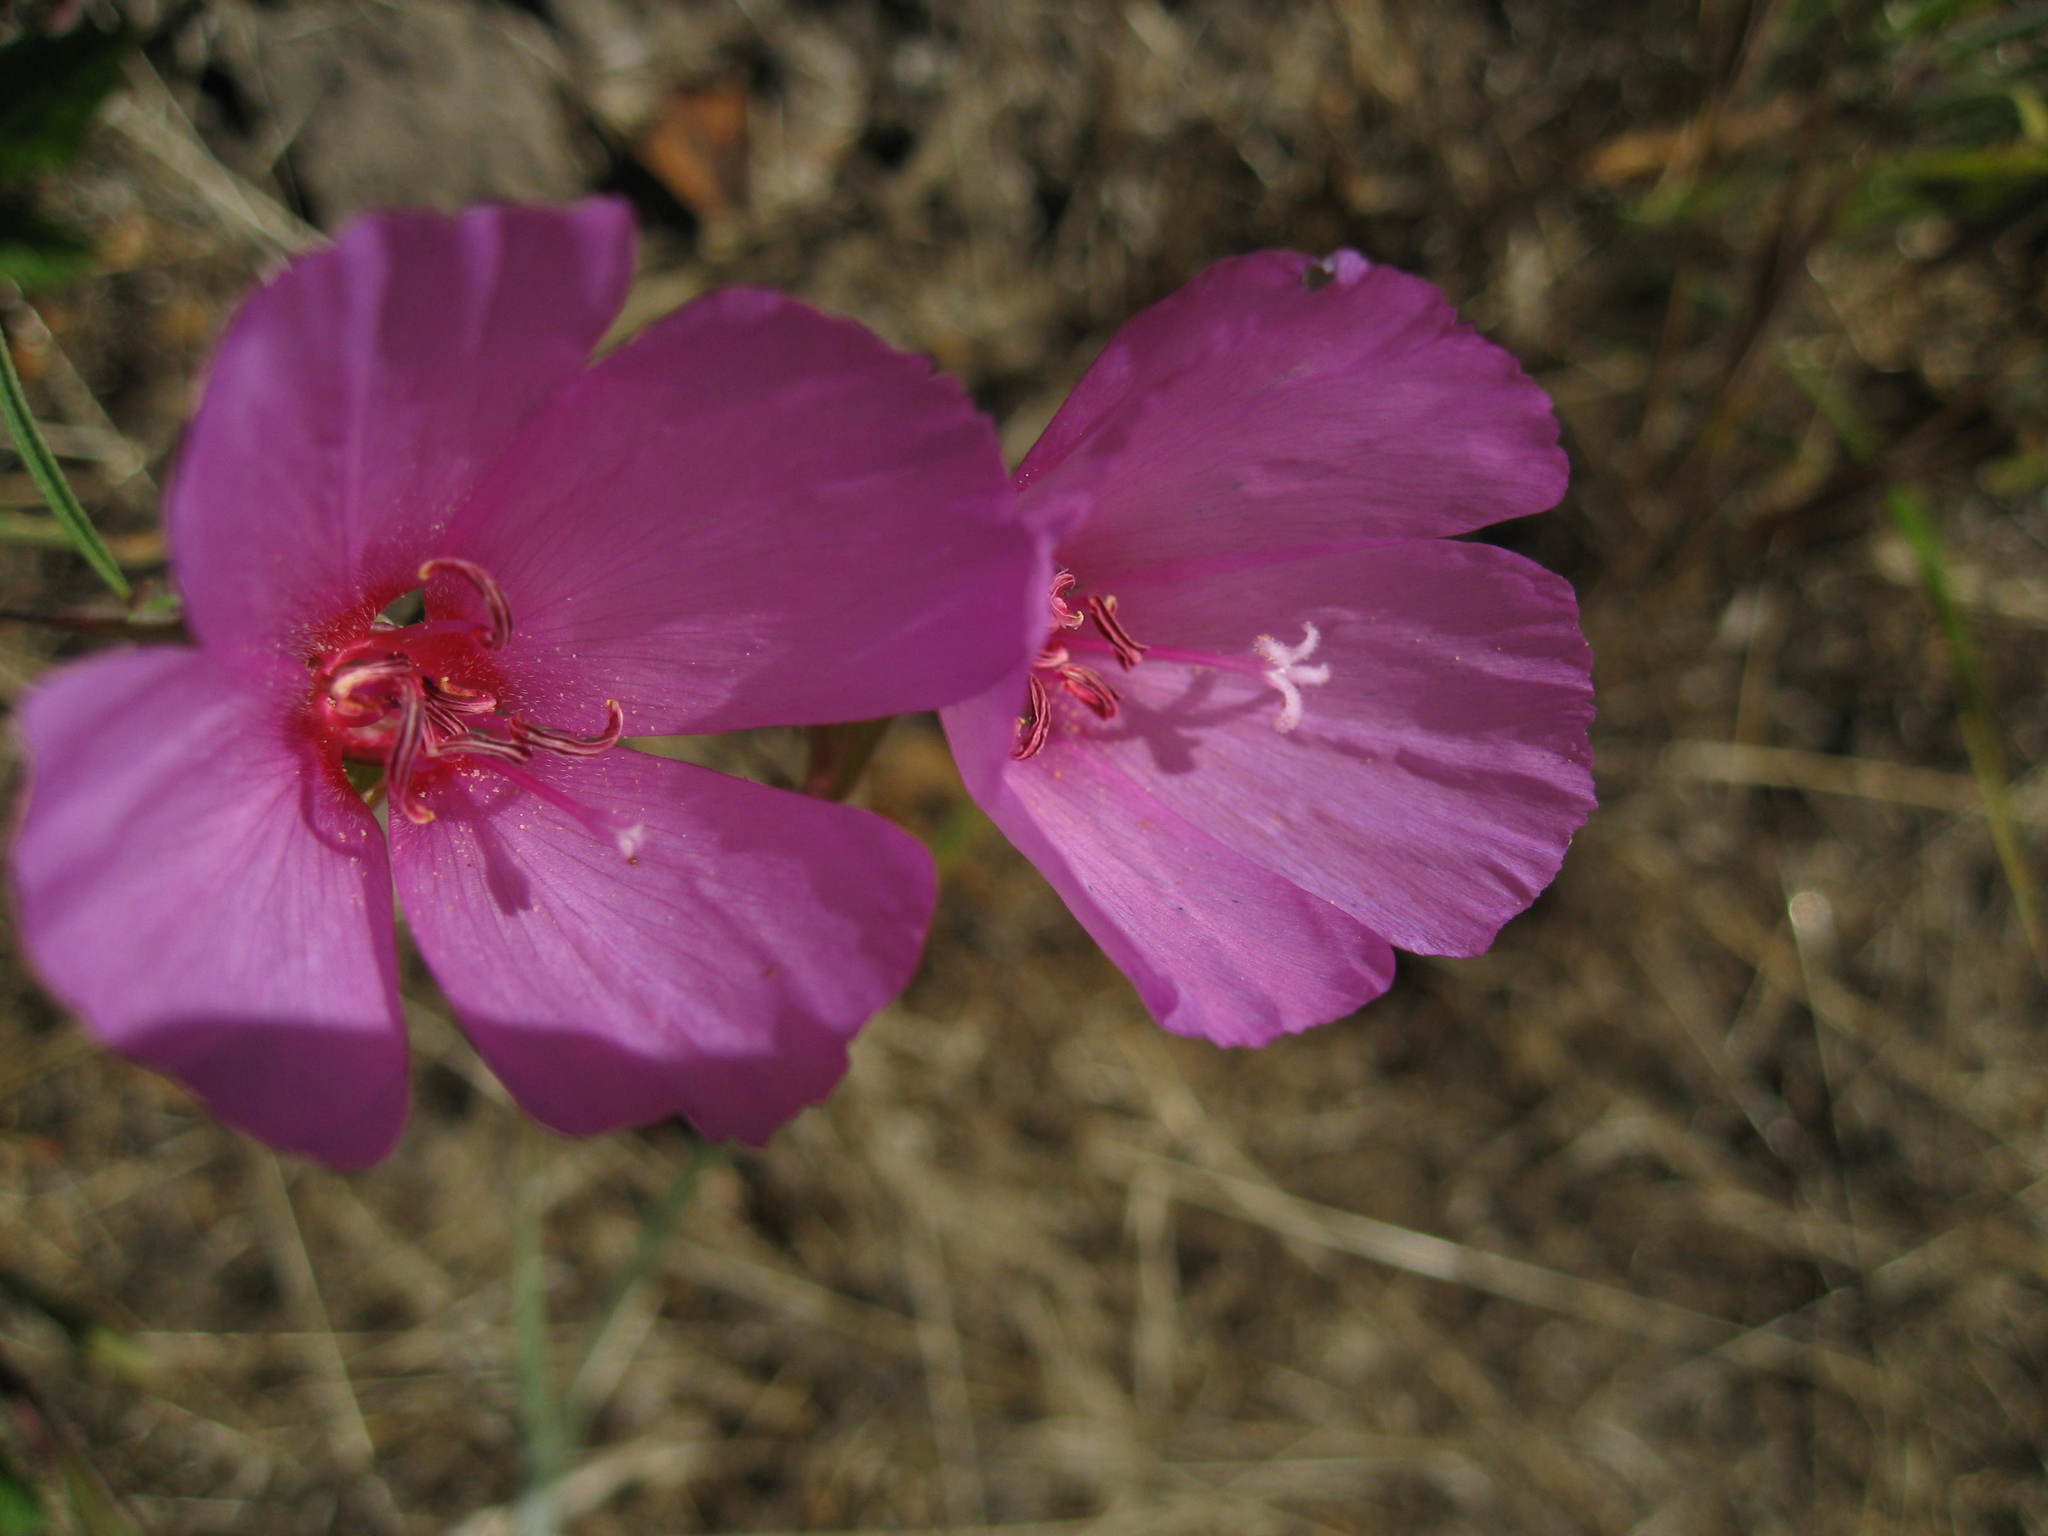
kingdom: Plantae
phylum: Tracheophyta
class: Magnoliopsida
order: Myrtales
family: Onagraceae
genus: Clarkia
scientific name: Clarkia rubicunda
